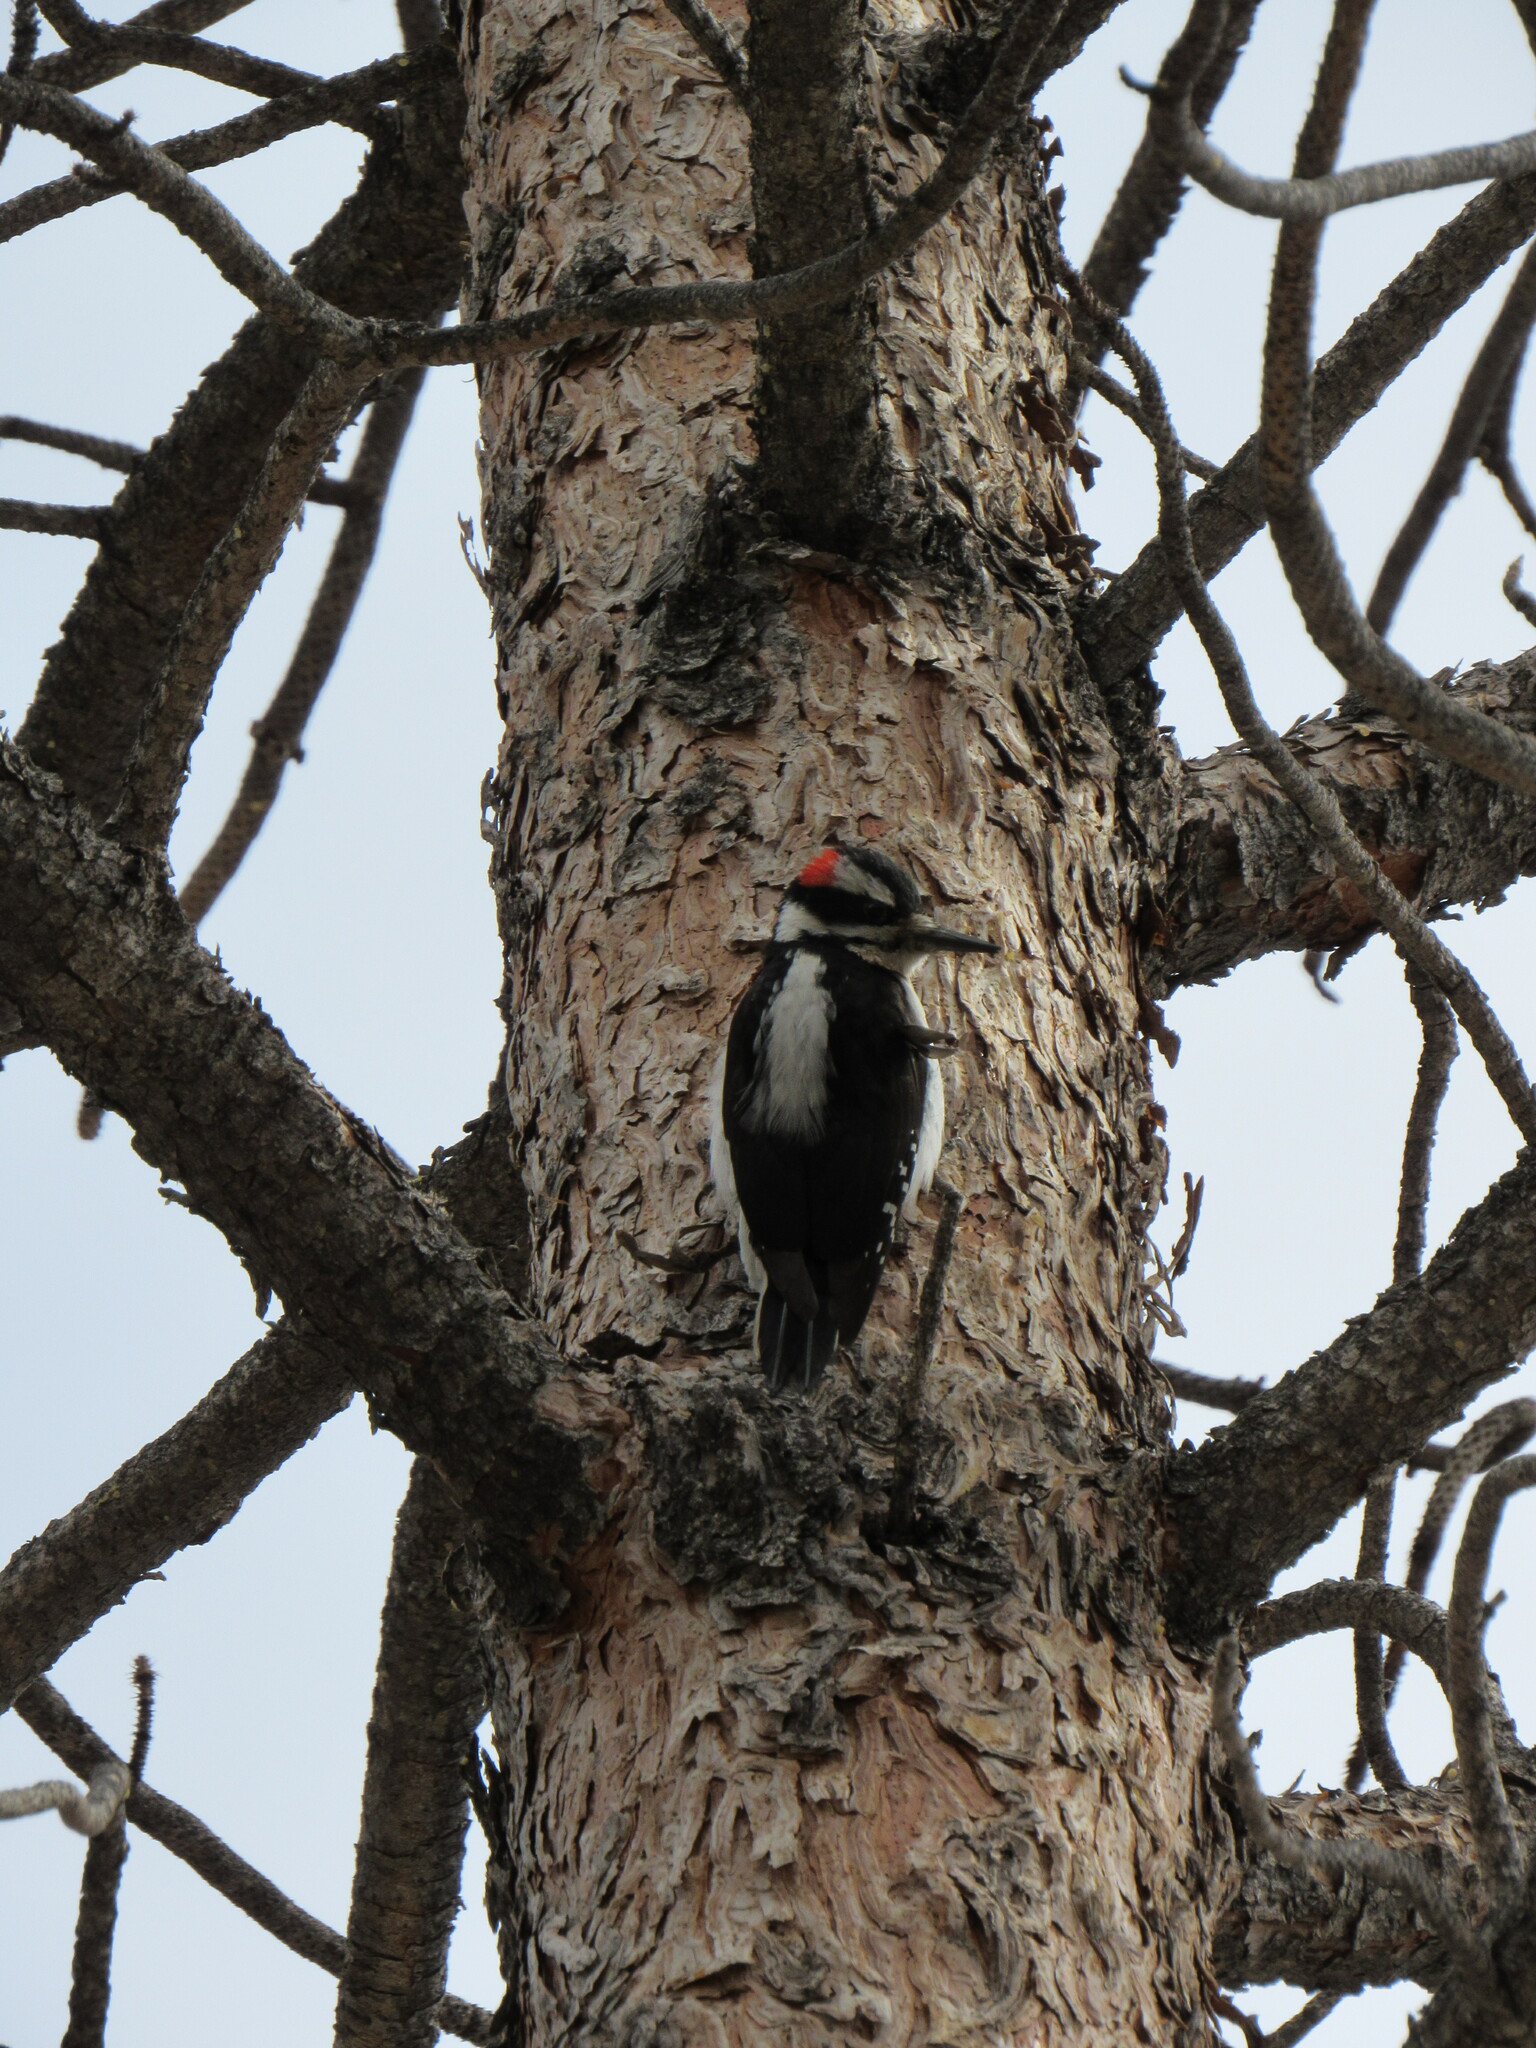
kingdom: Animalia
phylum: Chordata
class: Aves
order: Piciformes
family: Picidae
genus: Leuconotopicus
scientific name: Leuconotopicus villosus
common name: Hairy woodpecker
